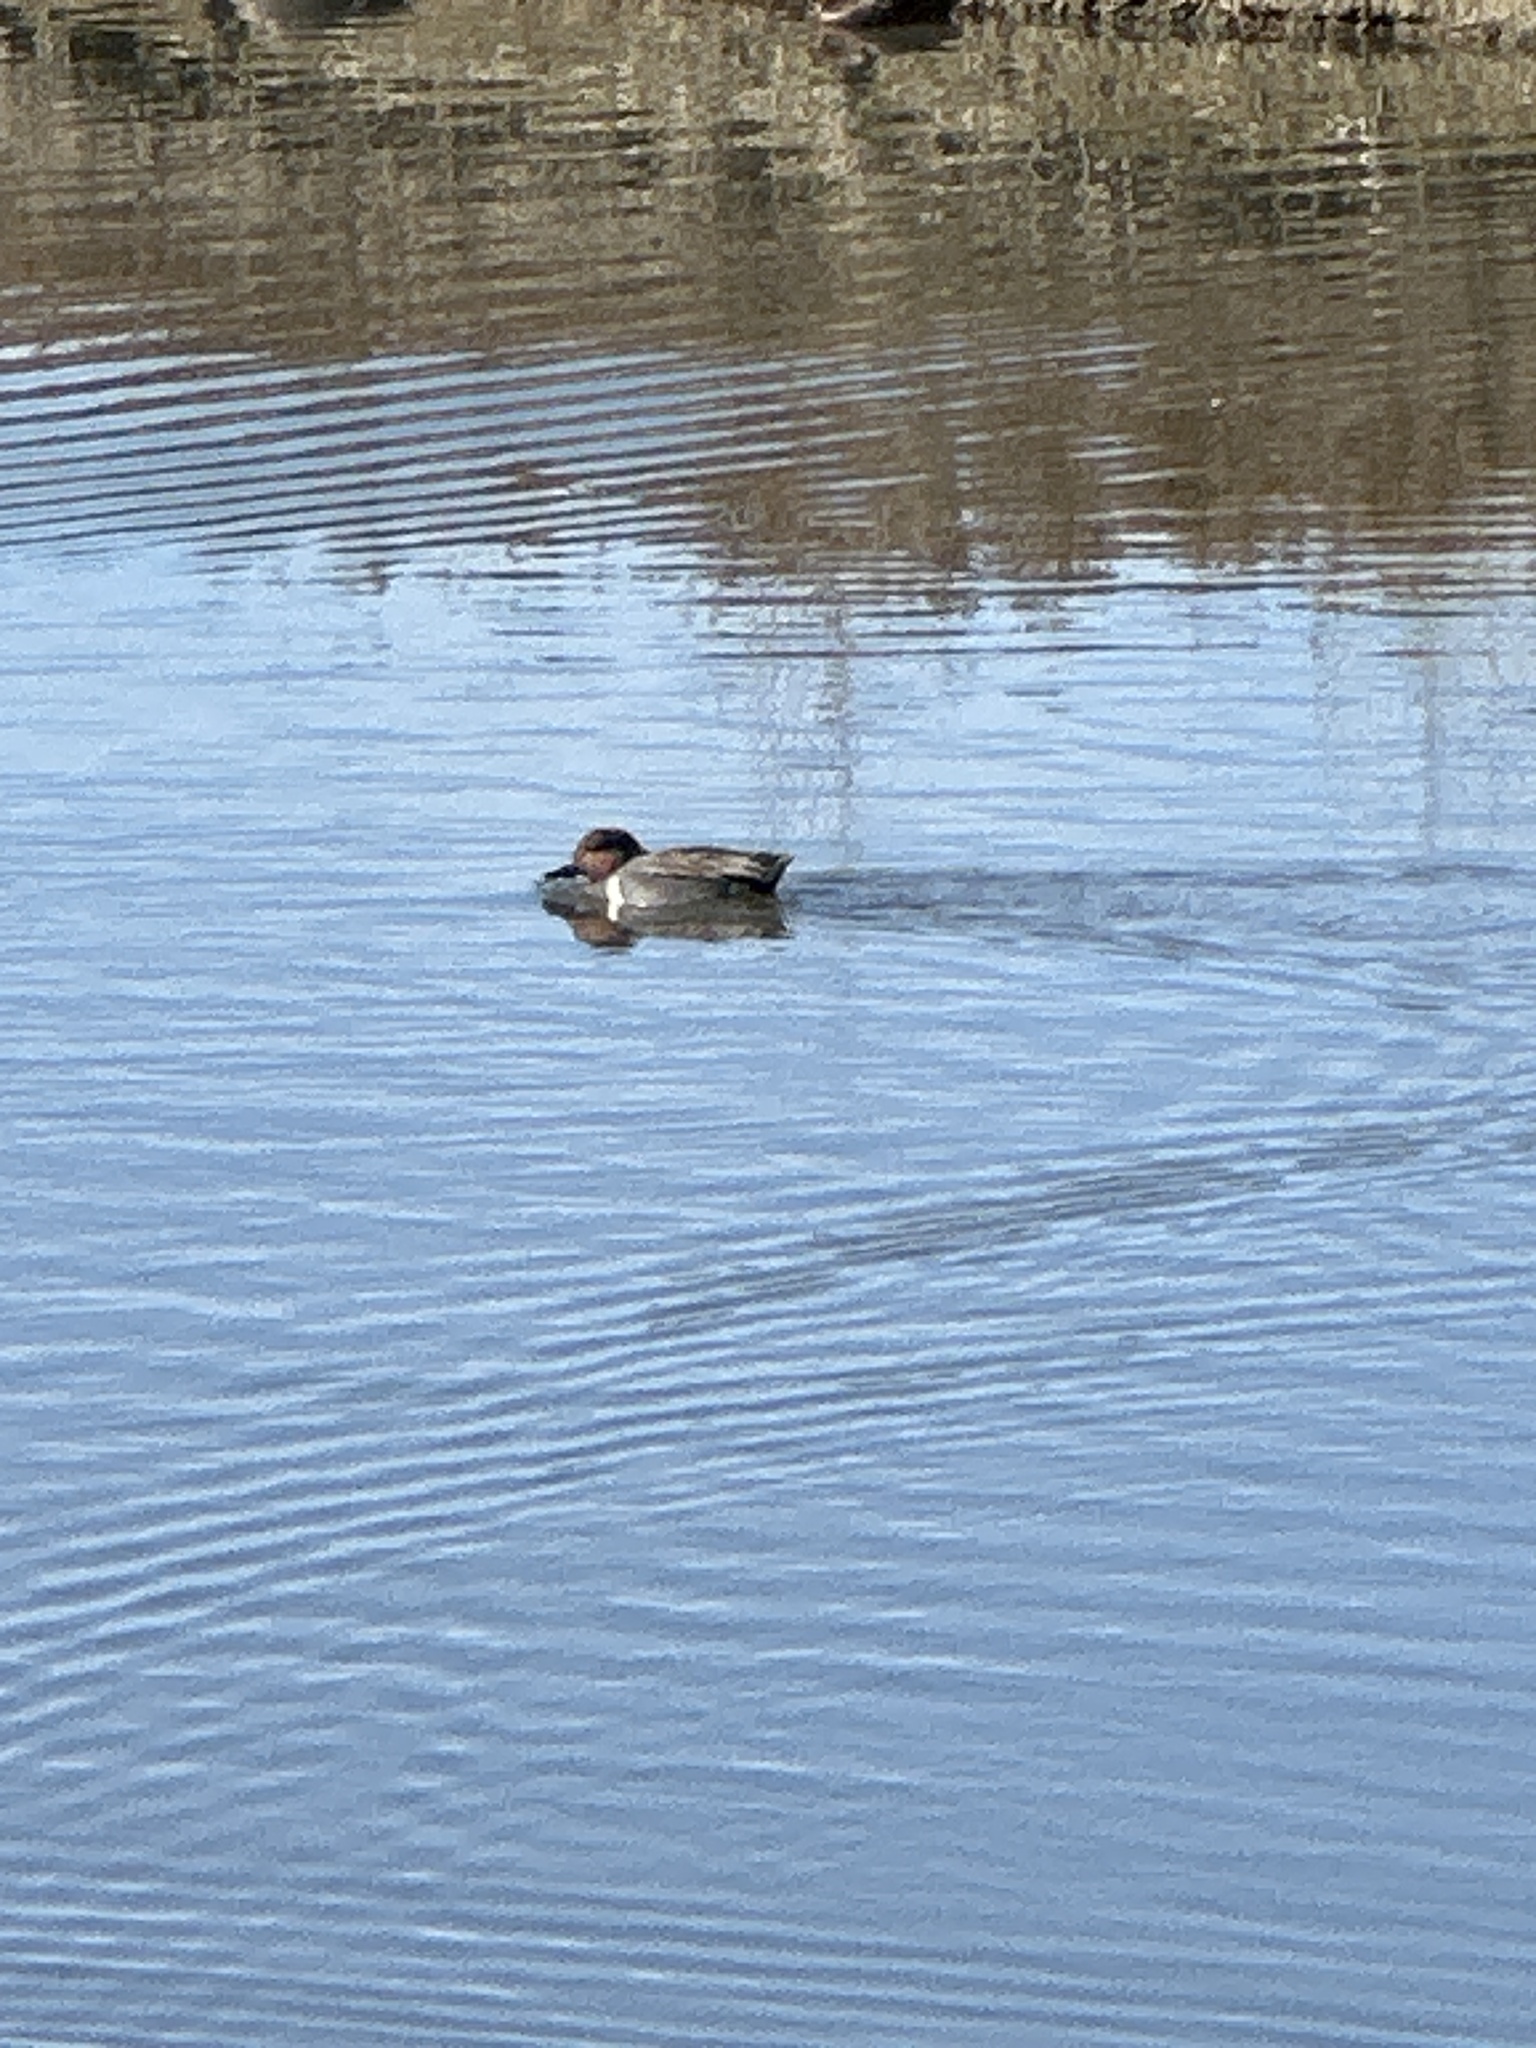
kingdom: Animalia
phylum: Chordata
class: Aves
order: Anseriformes
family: Anatidae
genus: Anas
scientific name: Anas crecca
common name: Eurasian teal
